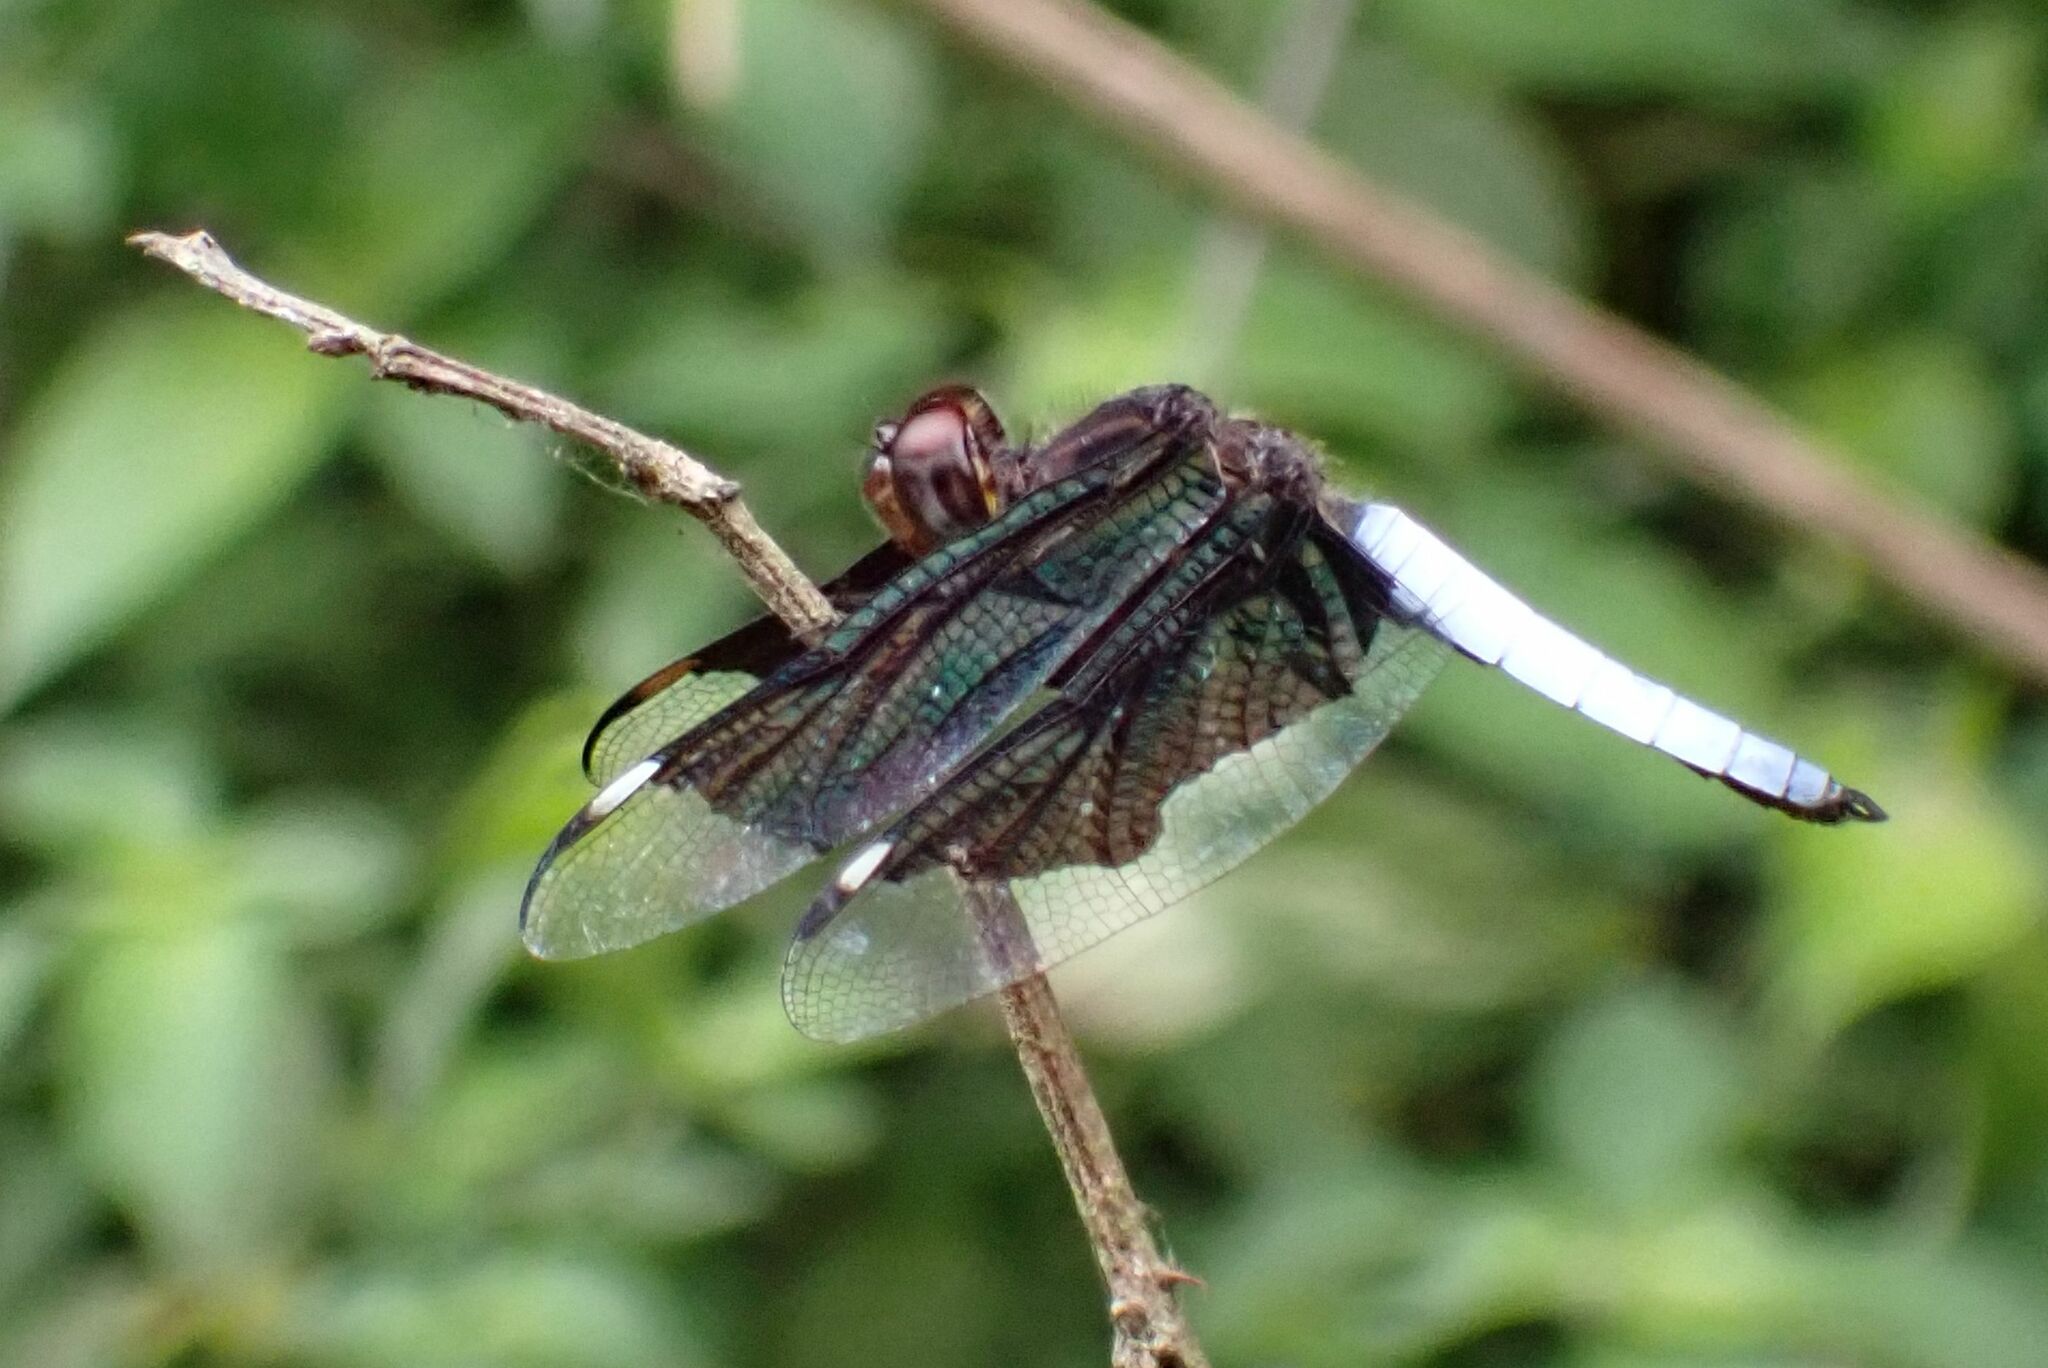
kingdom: Animalia
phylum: Arthropoda
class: Insecta
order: Odonata
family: Libellulidae
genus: Palpopleura
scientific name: Palpopleura lucia
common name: Lucia widow
